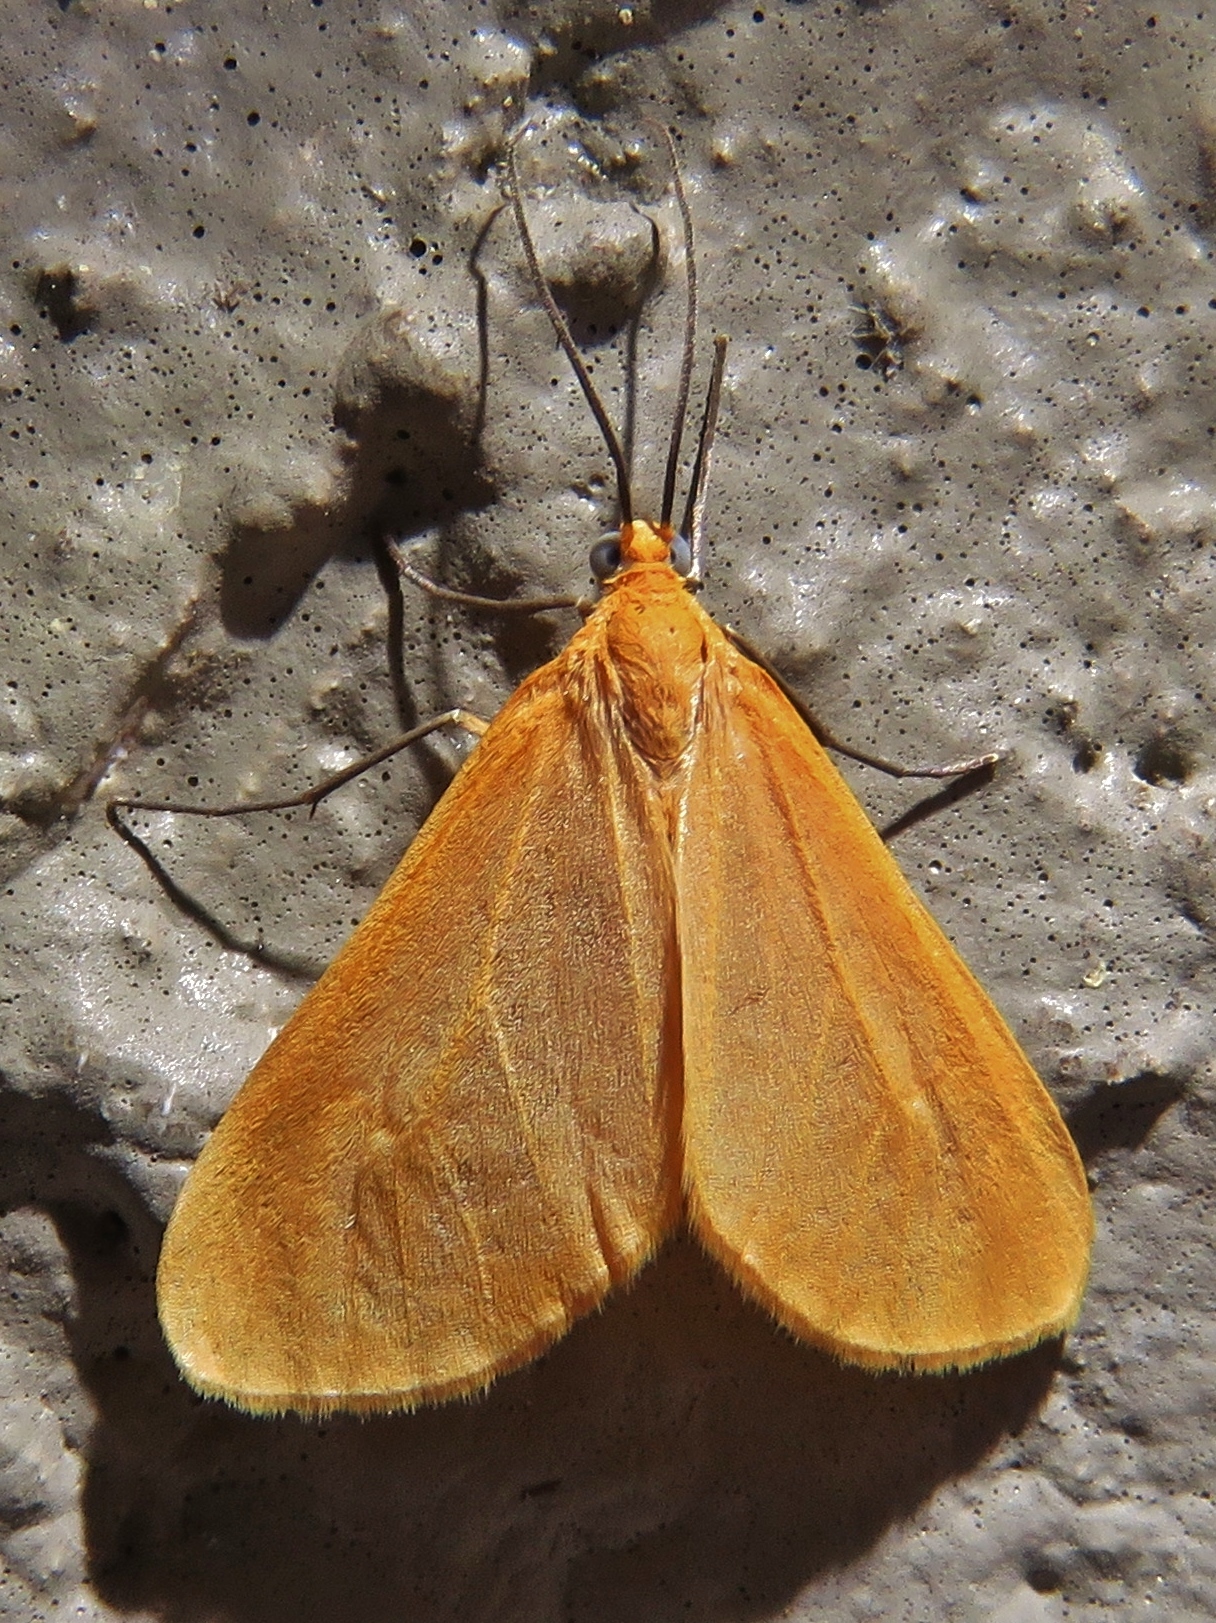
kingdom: Animalia
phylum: Arthropoda
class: Insecta
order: Lepidoptera
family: Geometridae
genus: Eubaphe
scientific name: Eubaphe unicolor
